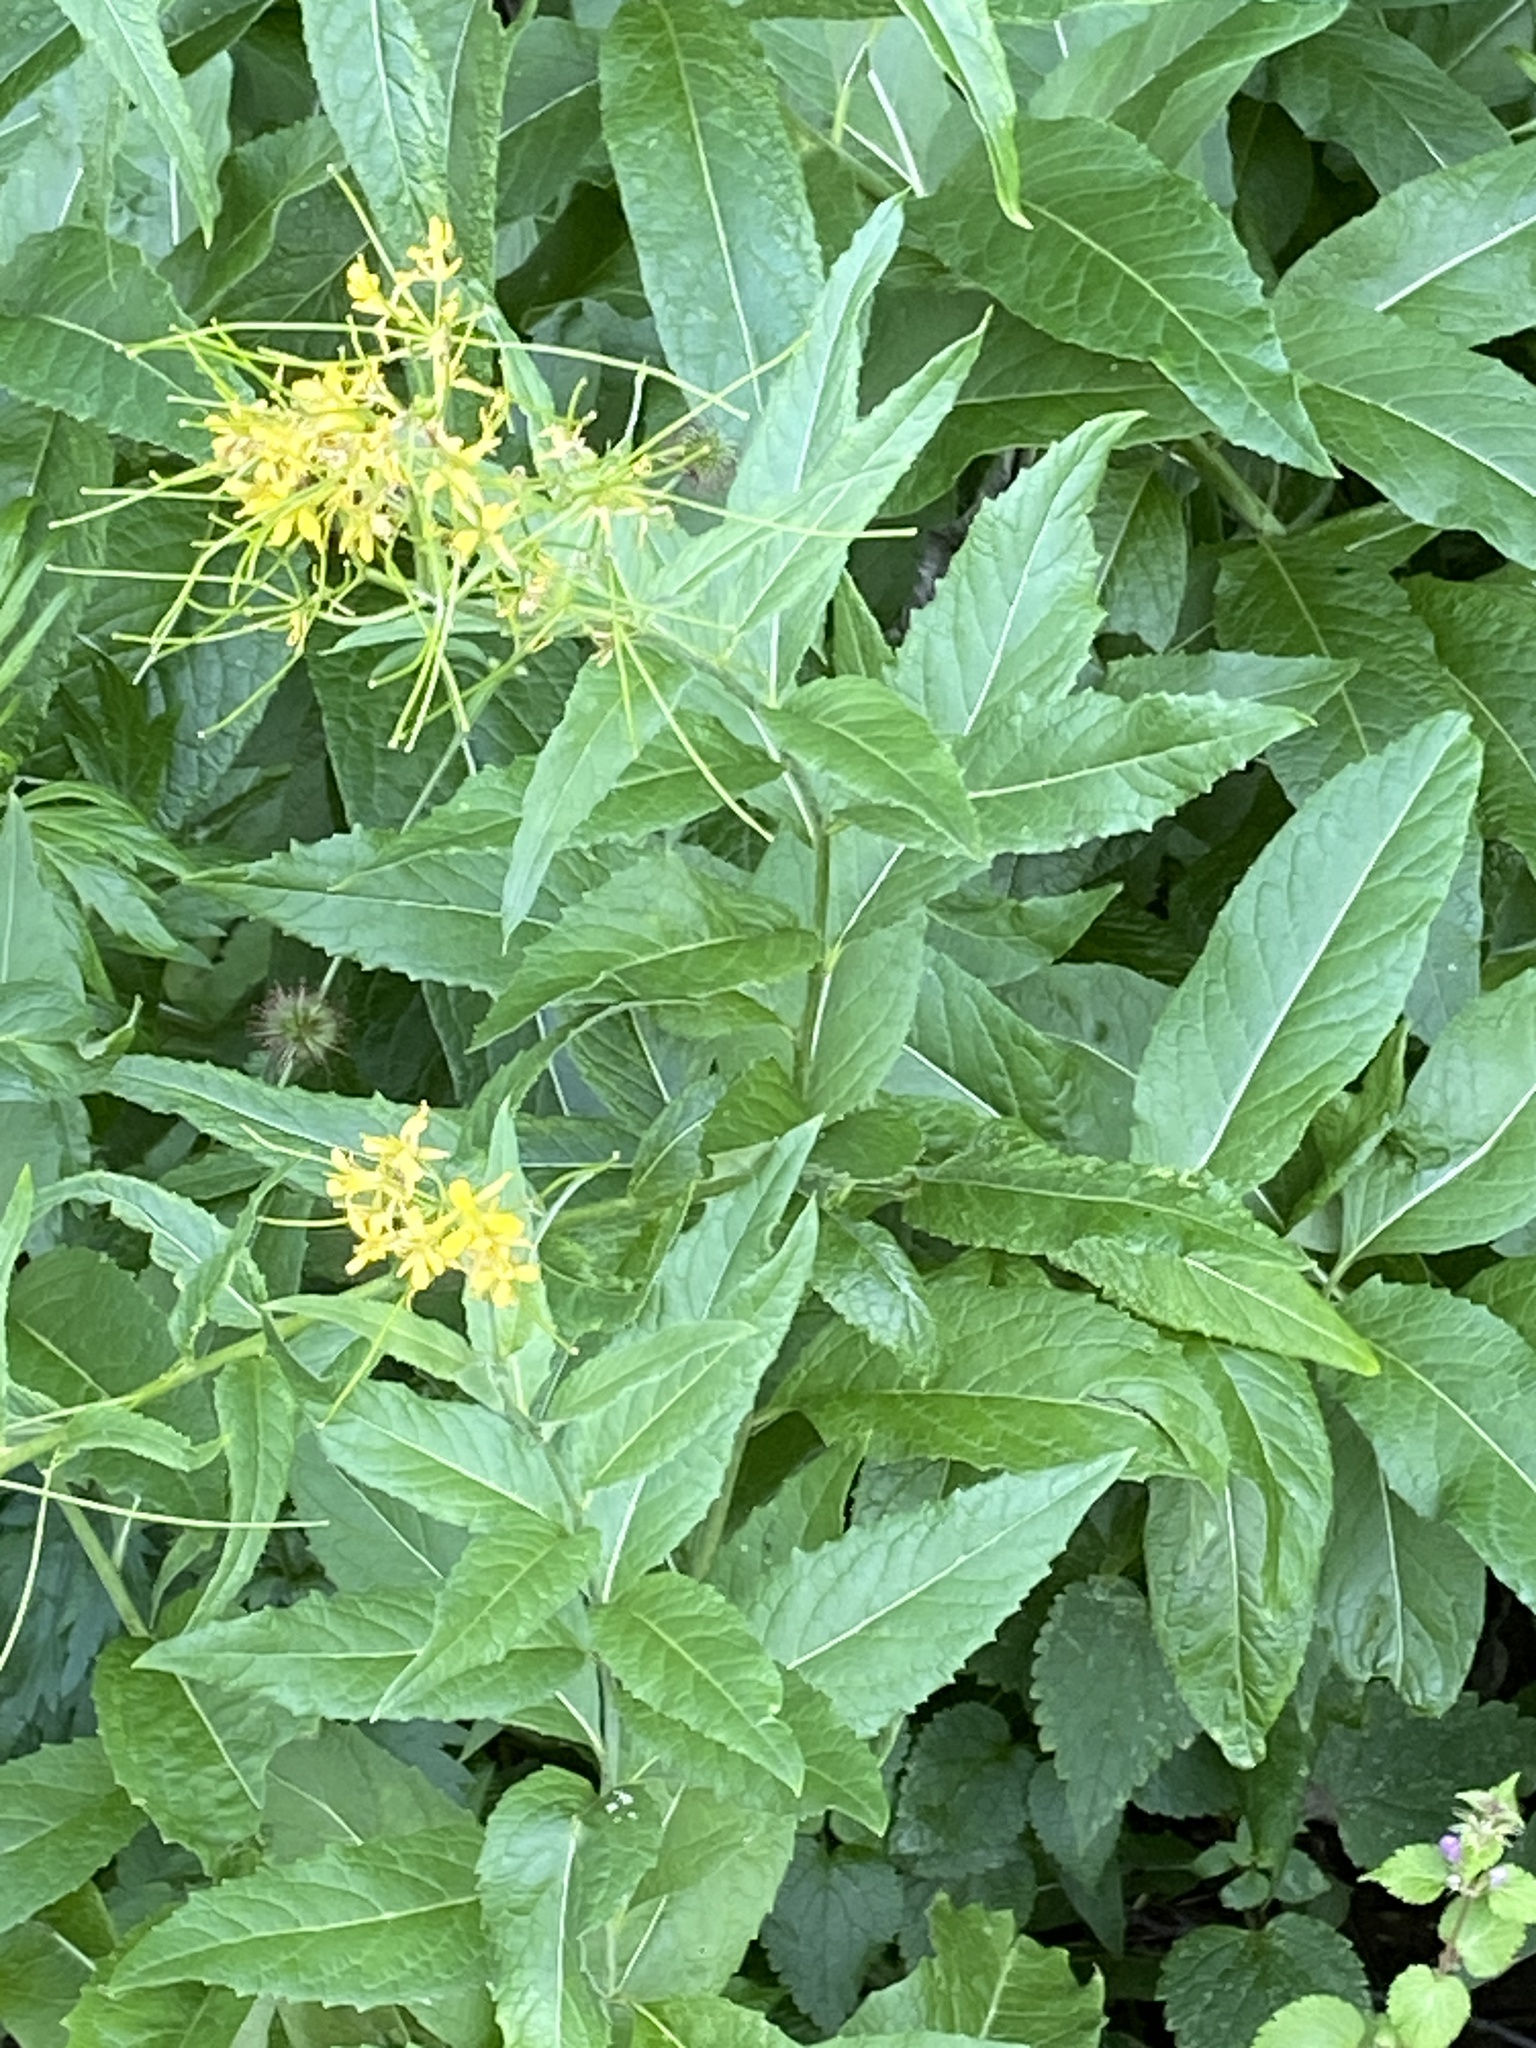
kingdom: Plantae
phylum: Tracheophyta
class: Magnoliopsida
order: Brassicales
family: Brassicaceae
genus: Sisymbrium
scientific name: Sisymbrium strictissimum
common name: Perennial rocket
